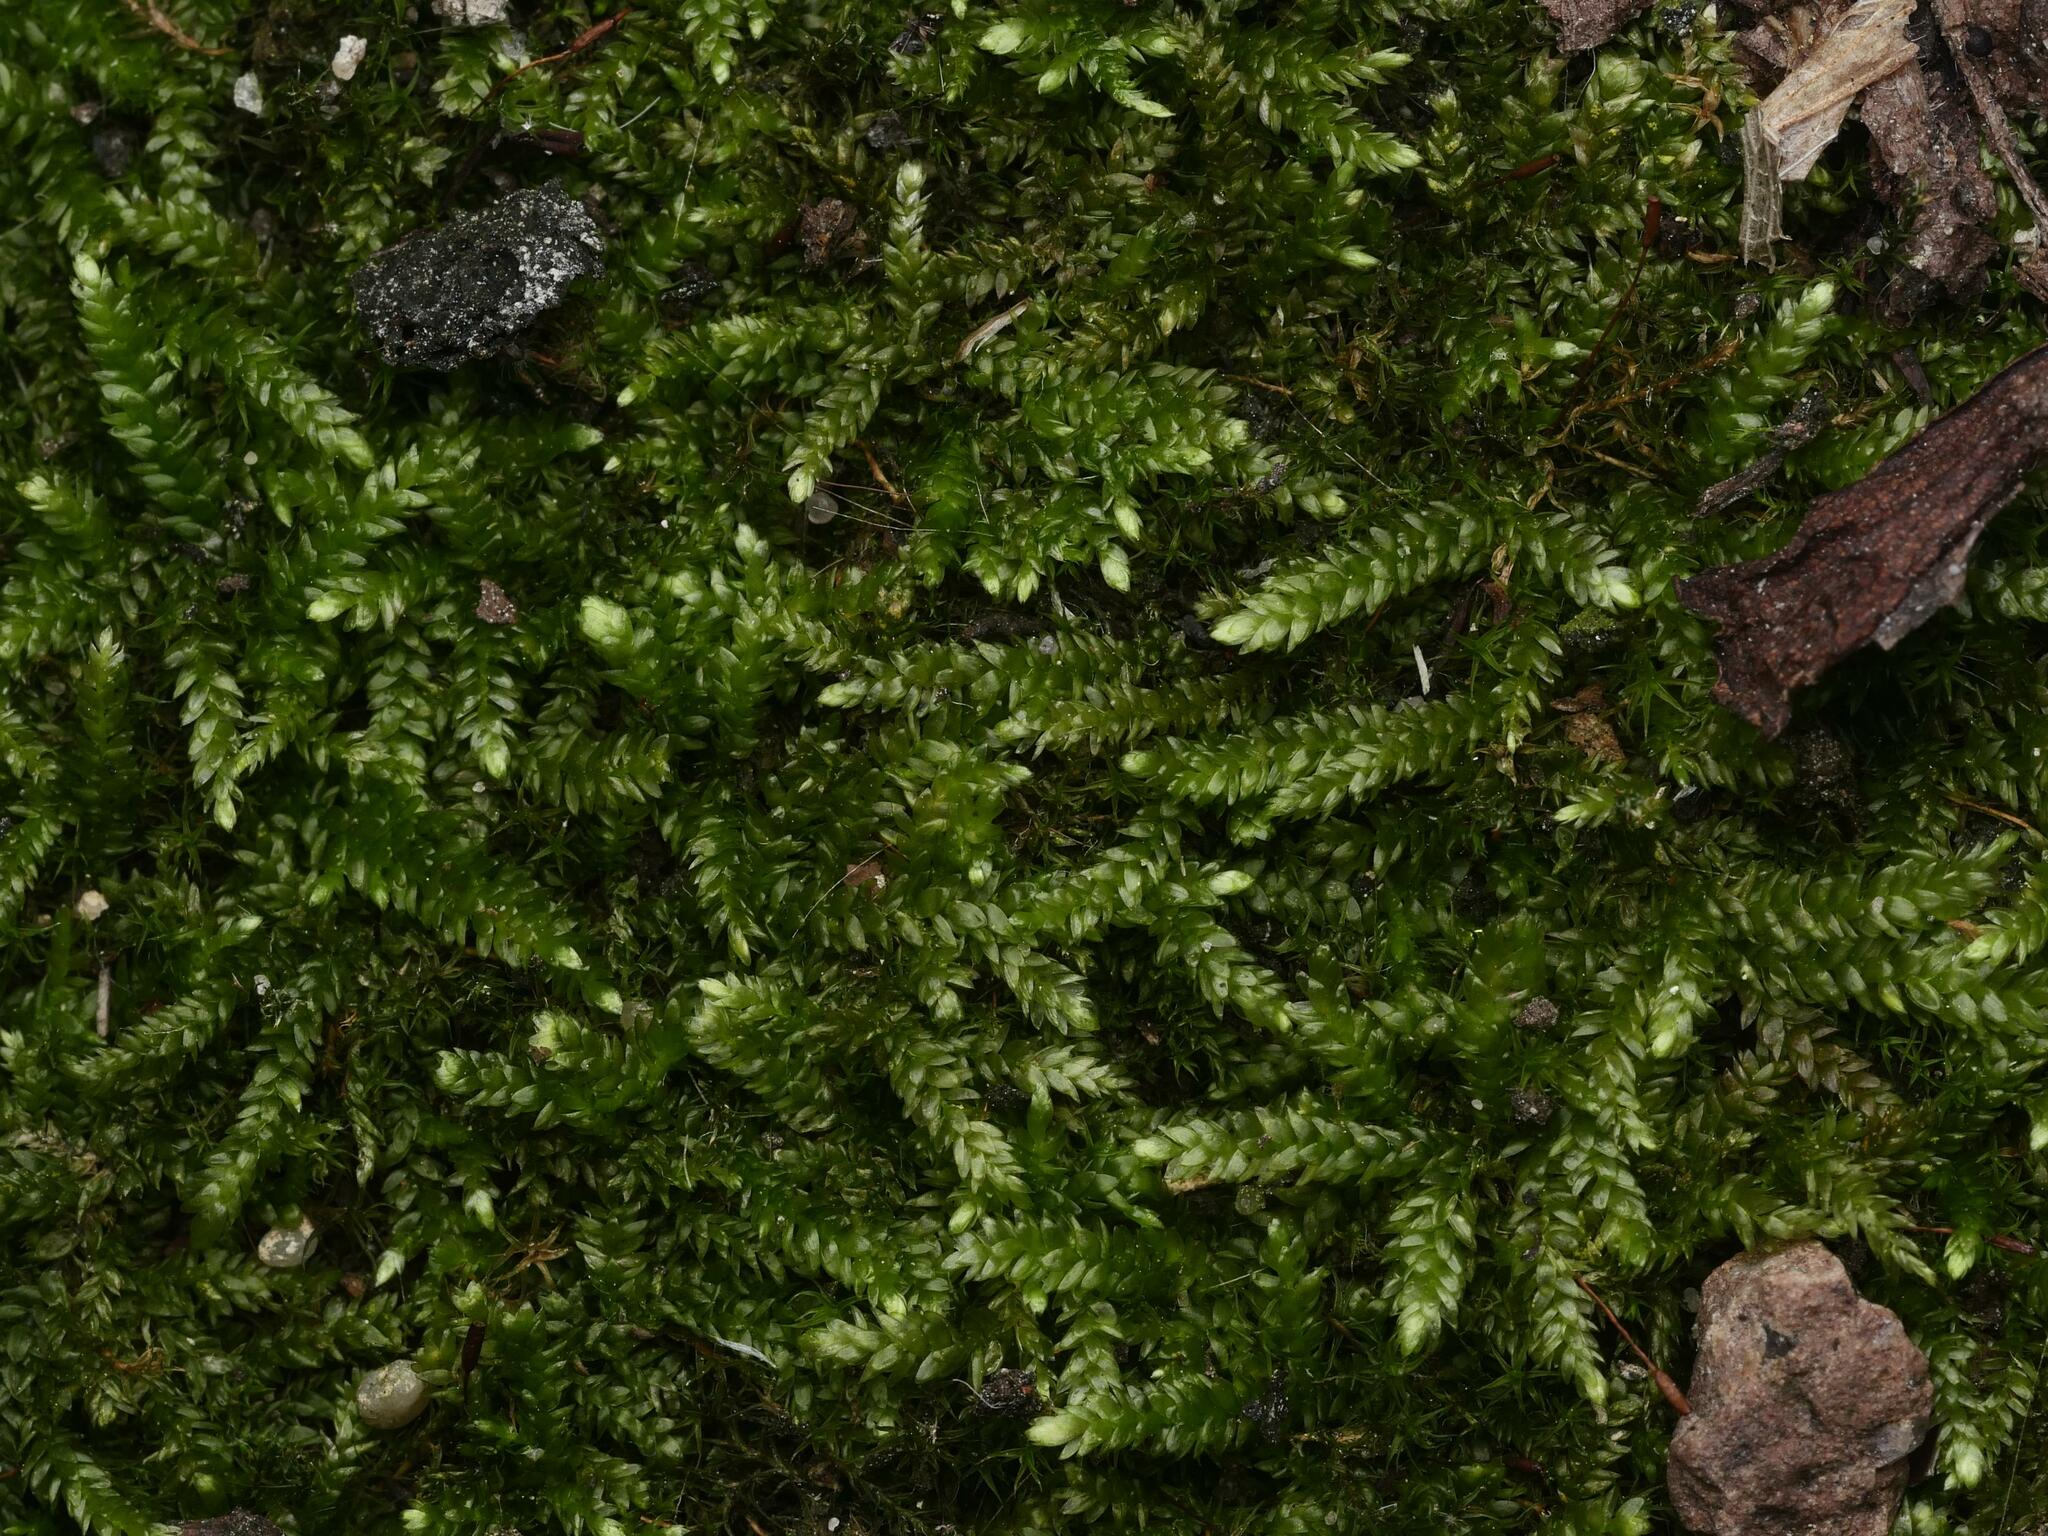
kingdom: Plantae
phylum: Bryophyta
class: Bryopsida
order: Hypnales
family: Hypnaceae
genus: Hypnum
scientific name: Hypnum cupressiforme
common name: Cypress-leaved plait-moss
